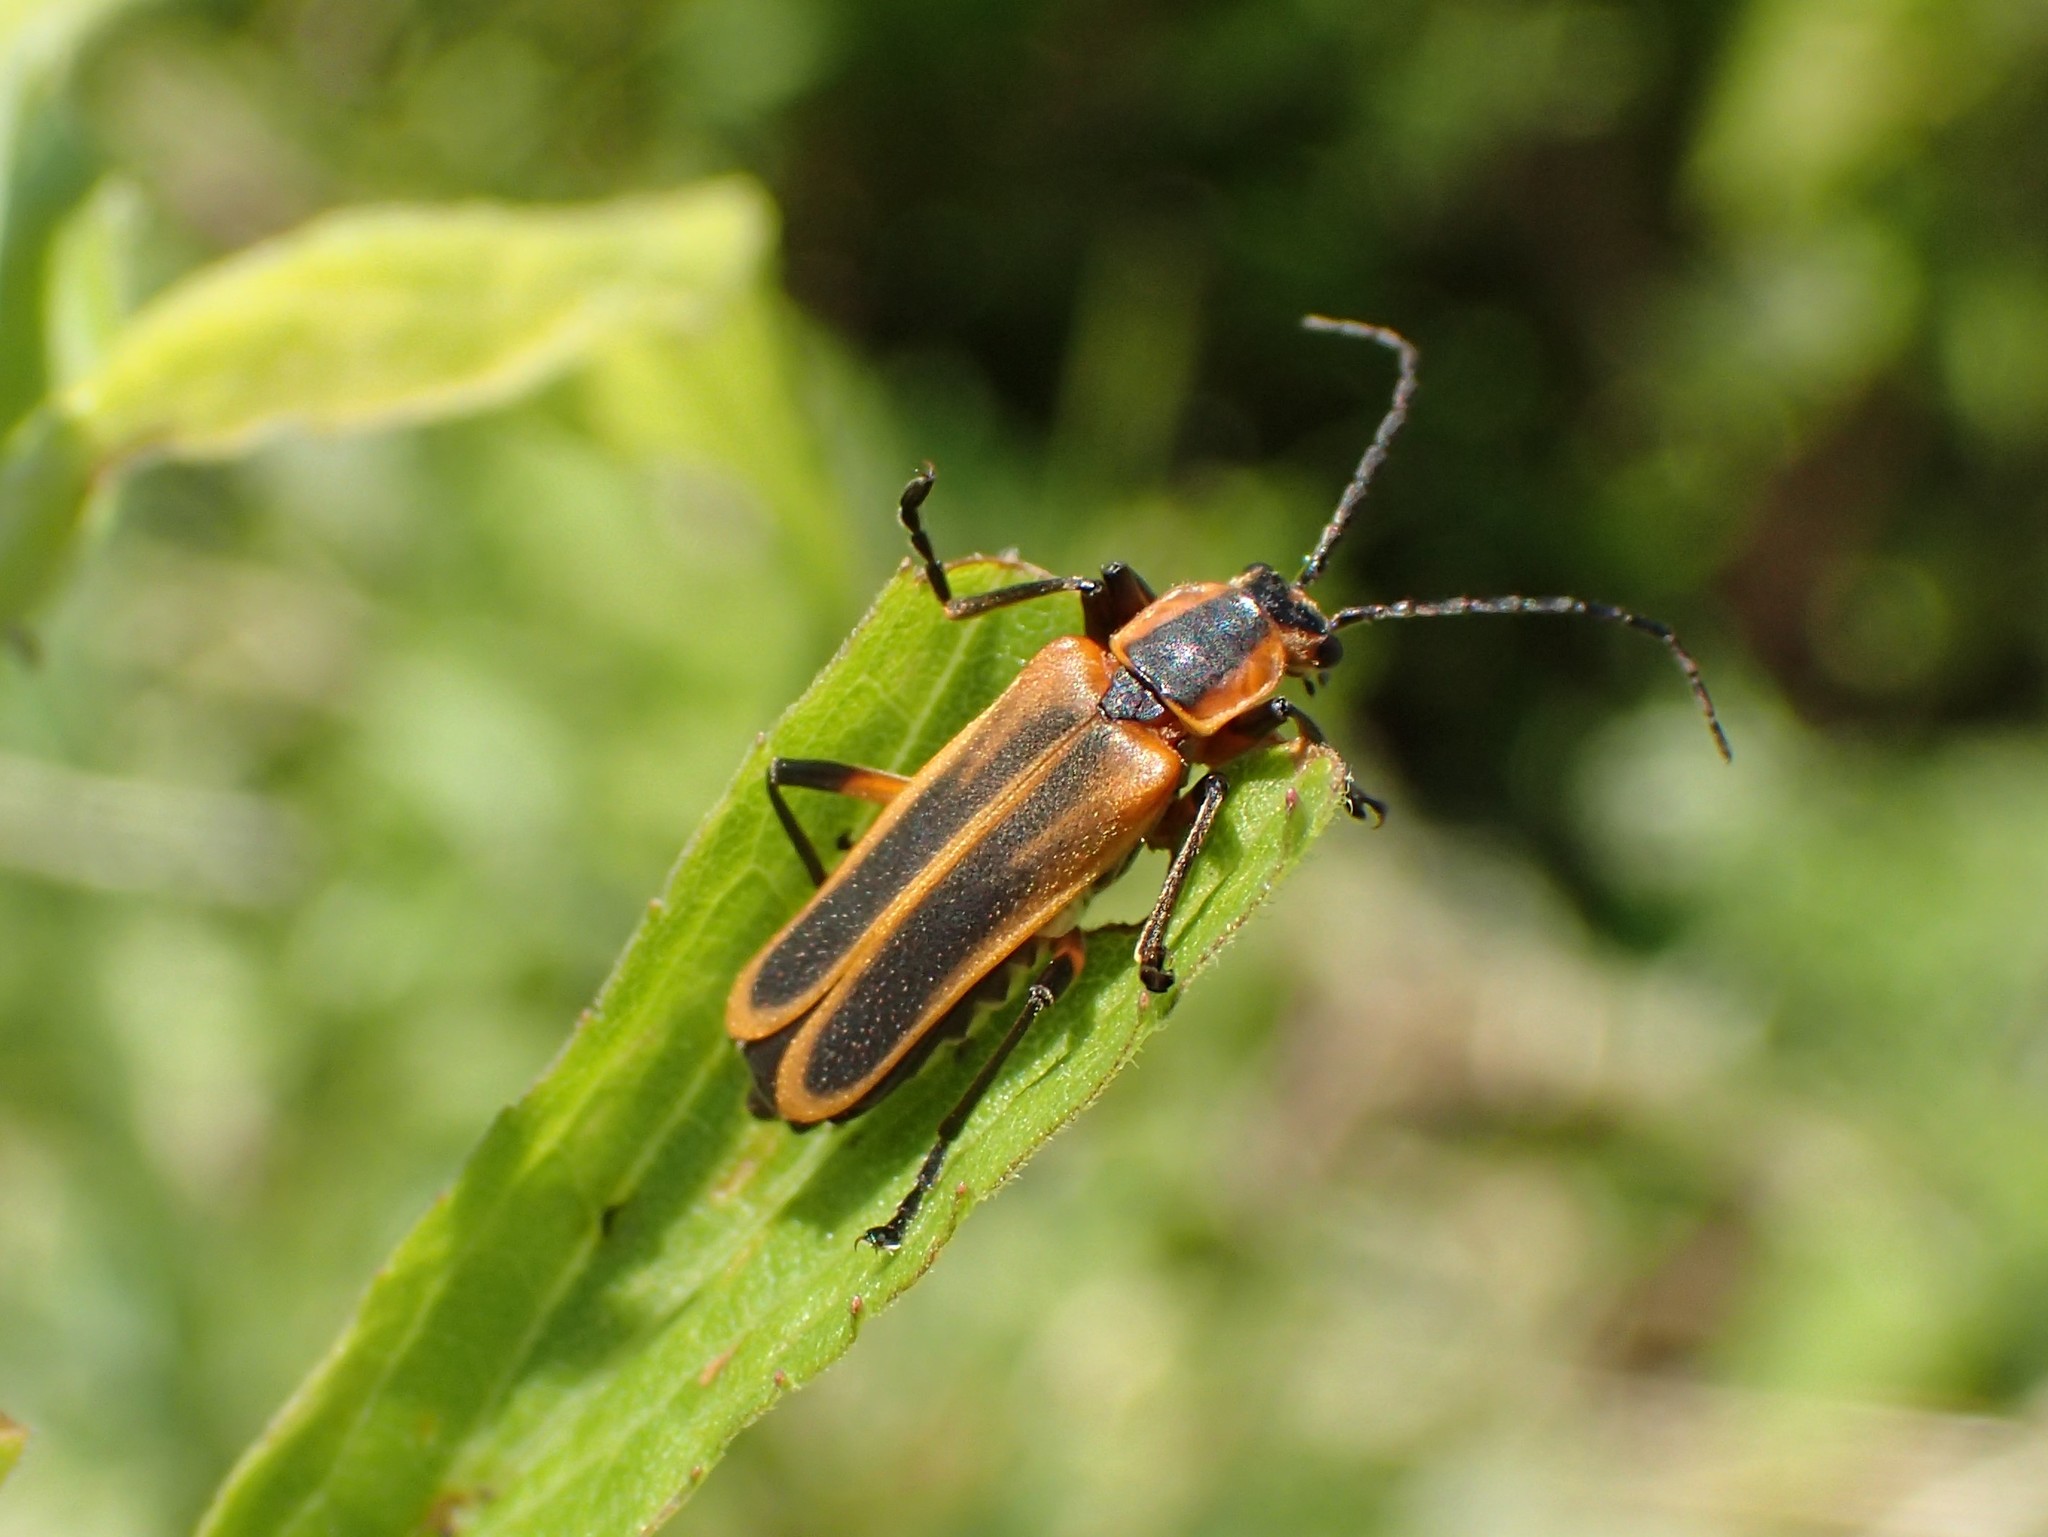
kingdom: Animalia
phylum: Arthropoda
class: Insecta
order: Coleoptera
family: Cantharidae
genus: Chauliognathus
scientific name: Chauliognathus marginatus
